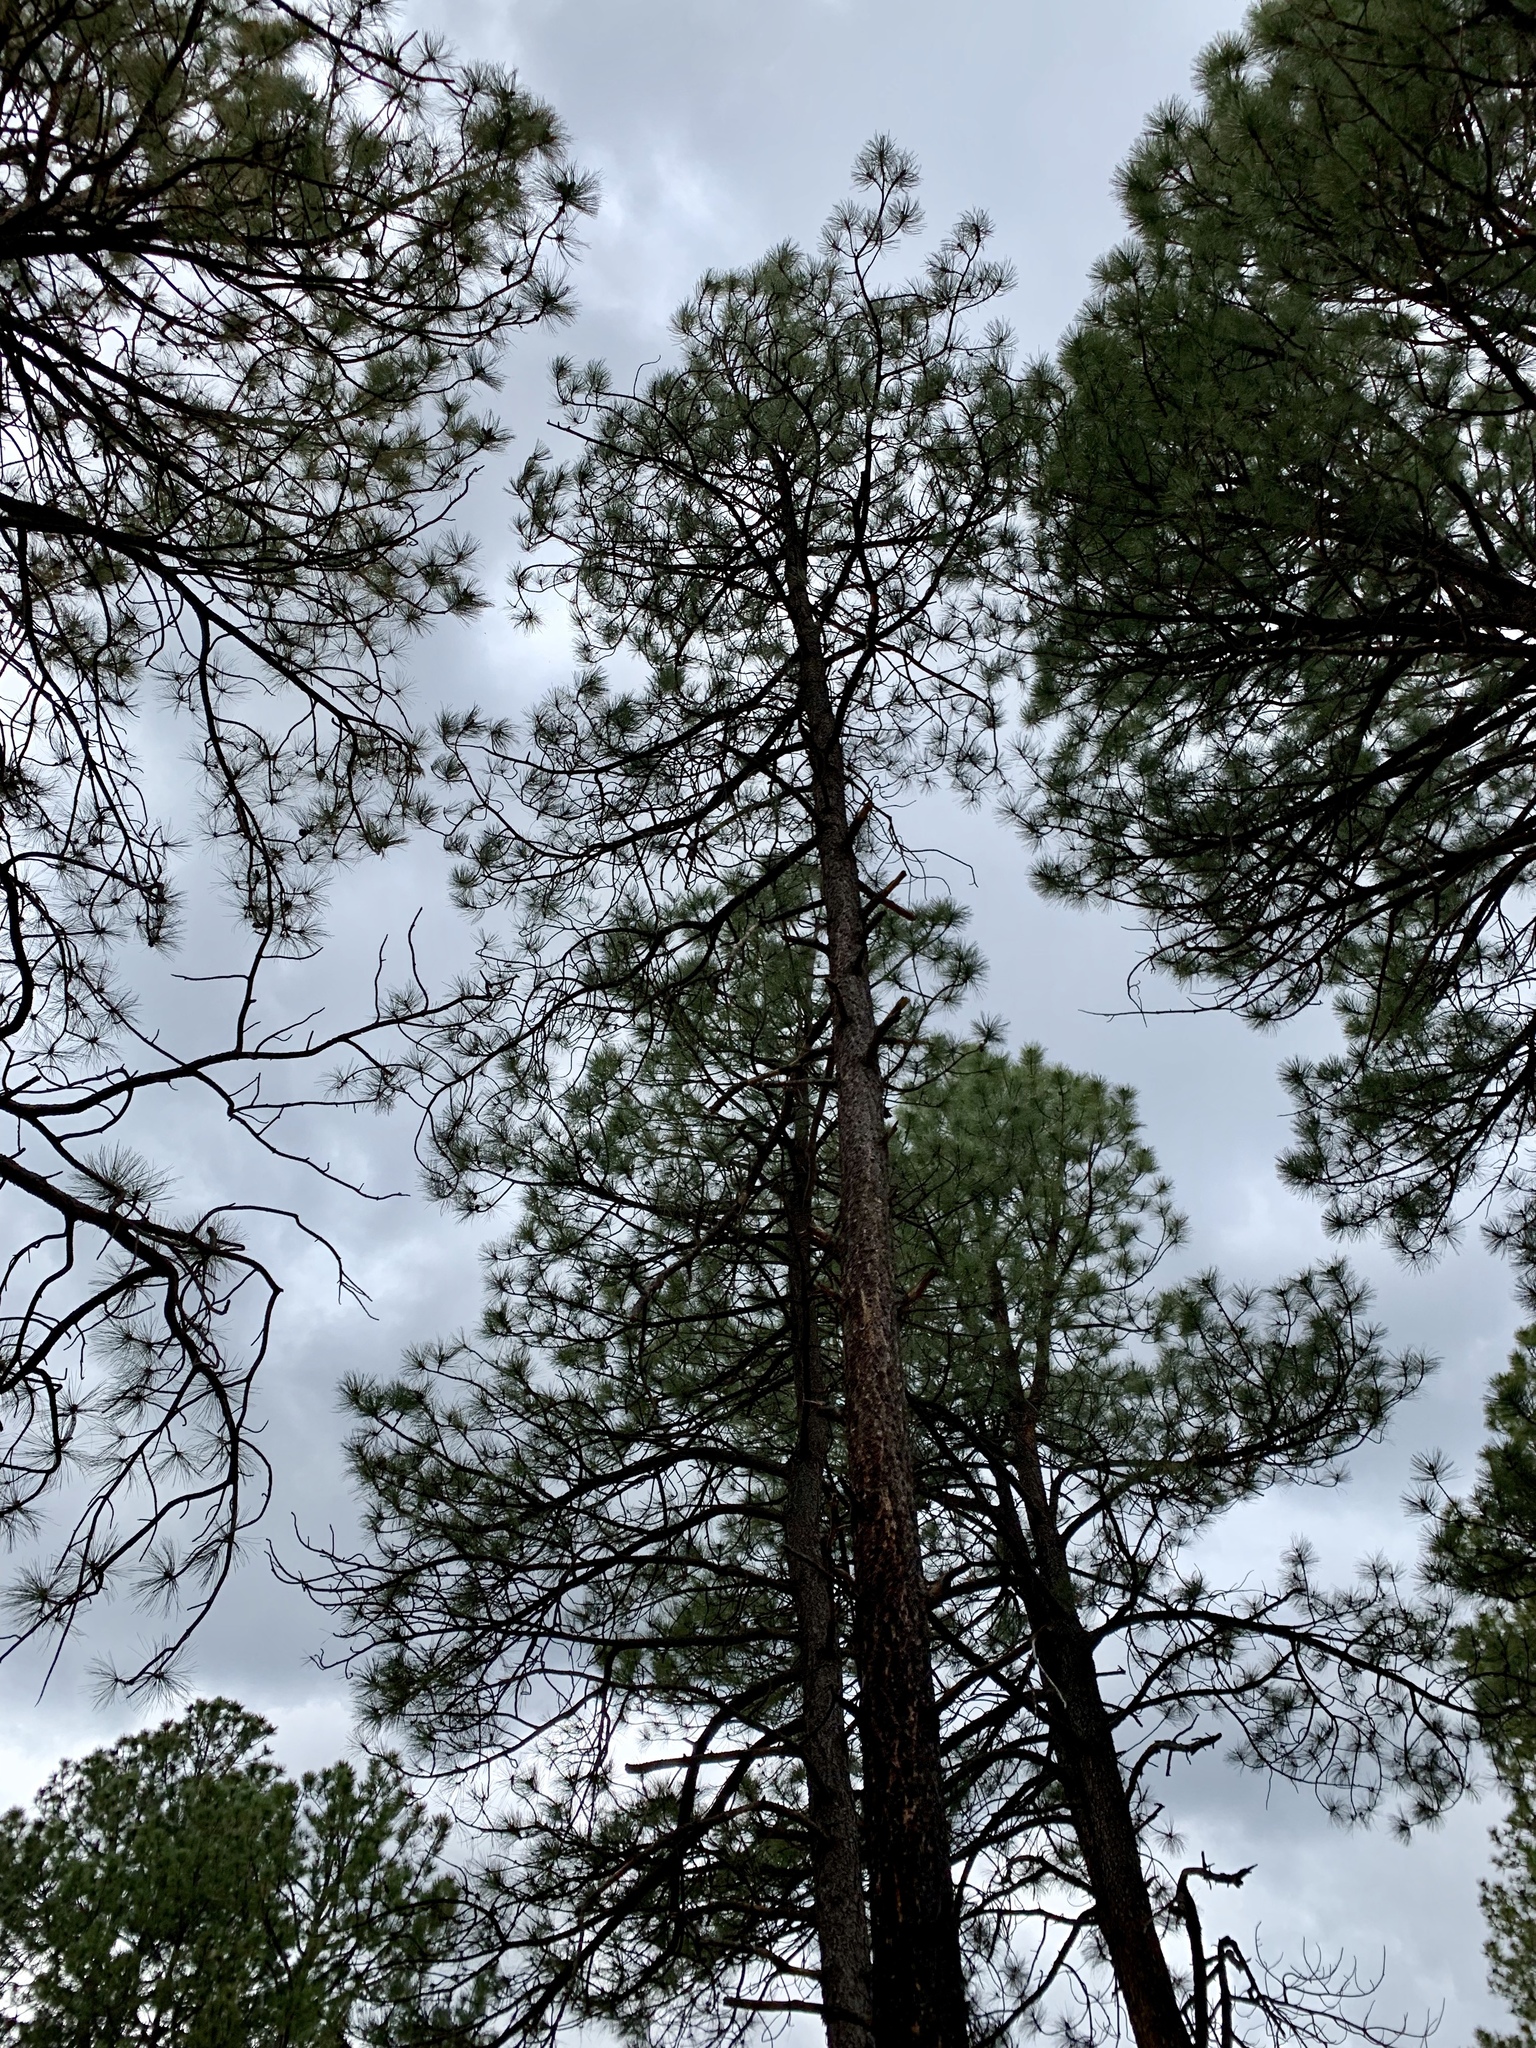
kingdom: Plantae
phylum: Tracheophyta
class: Pinopsida
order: Pinales
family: Pinaceae
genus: Pinus
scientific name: Pinus ponderosa
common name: Western yellow-pine
